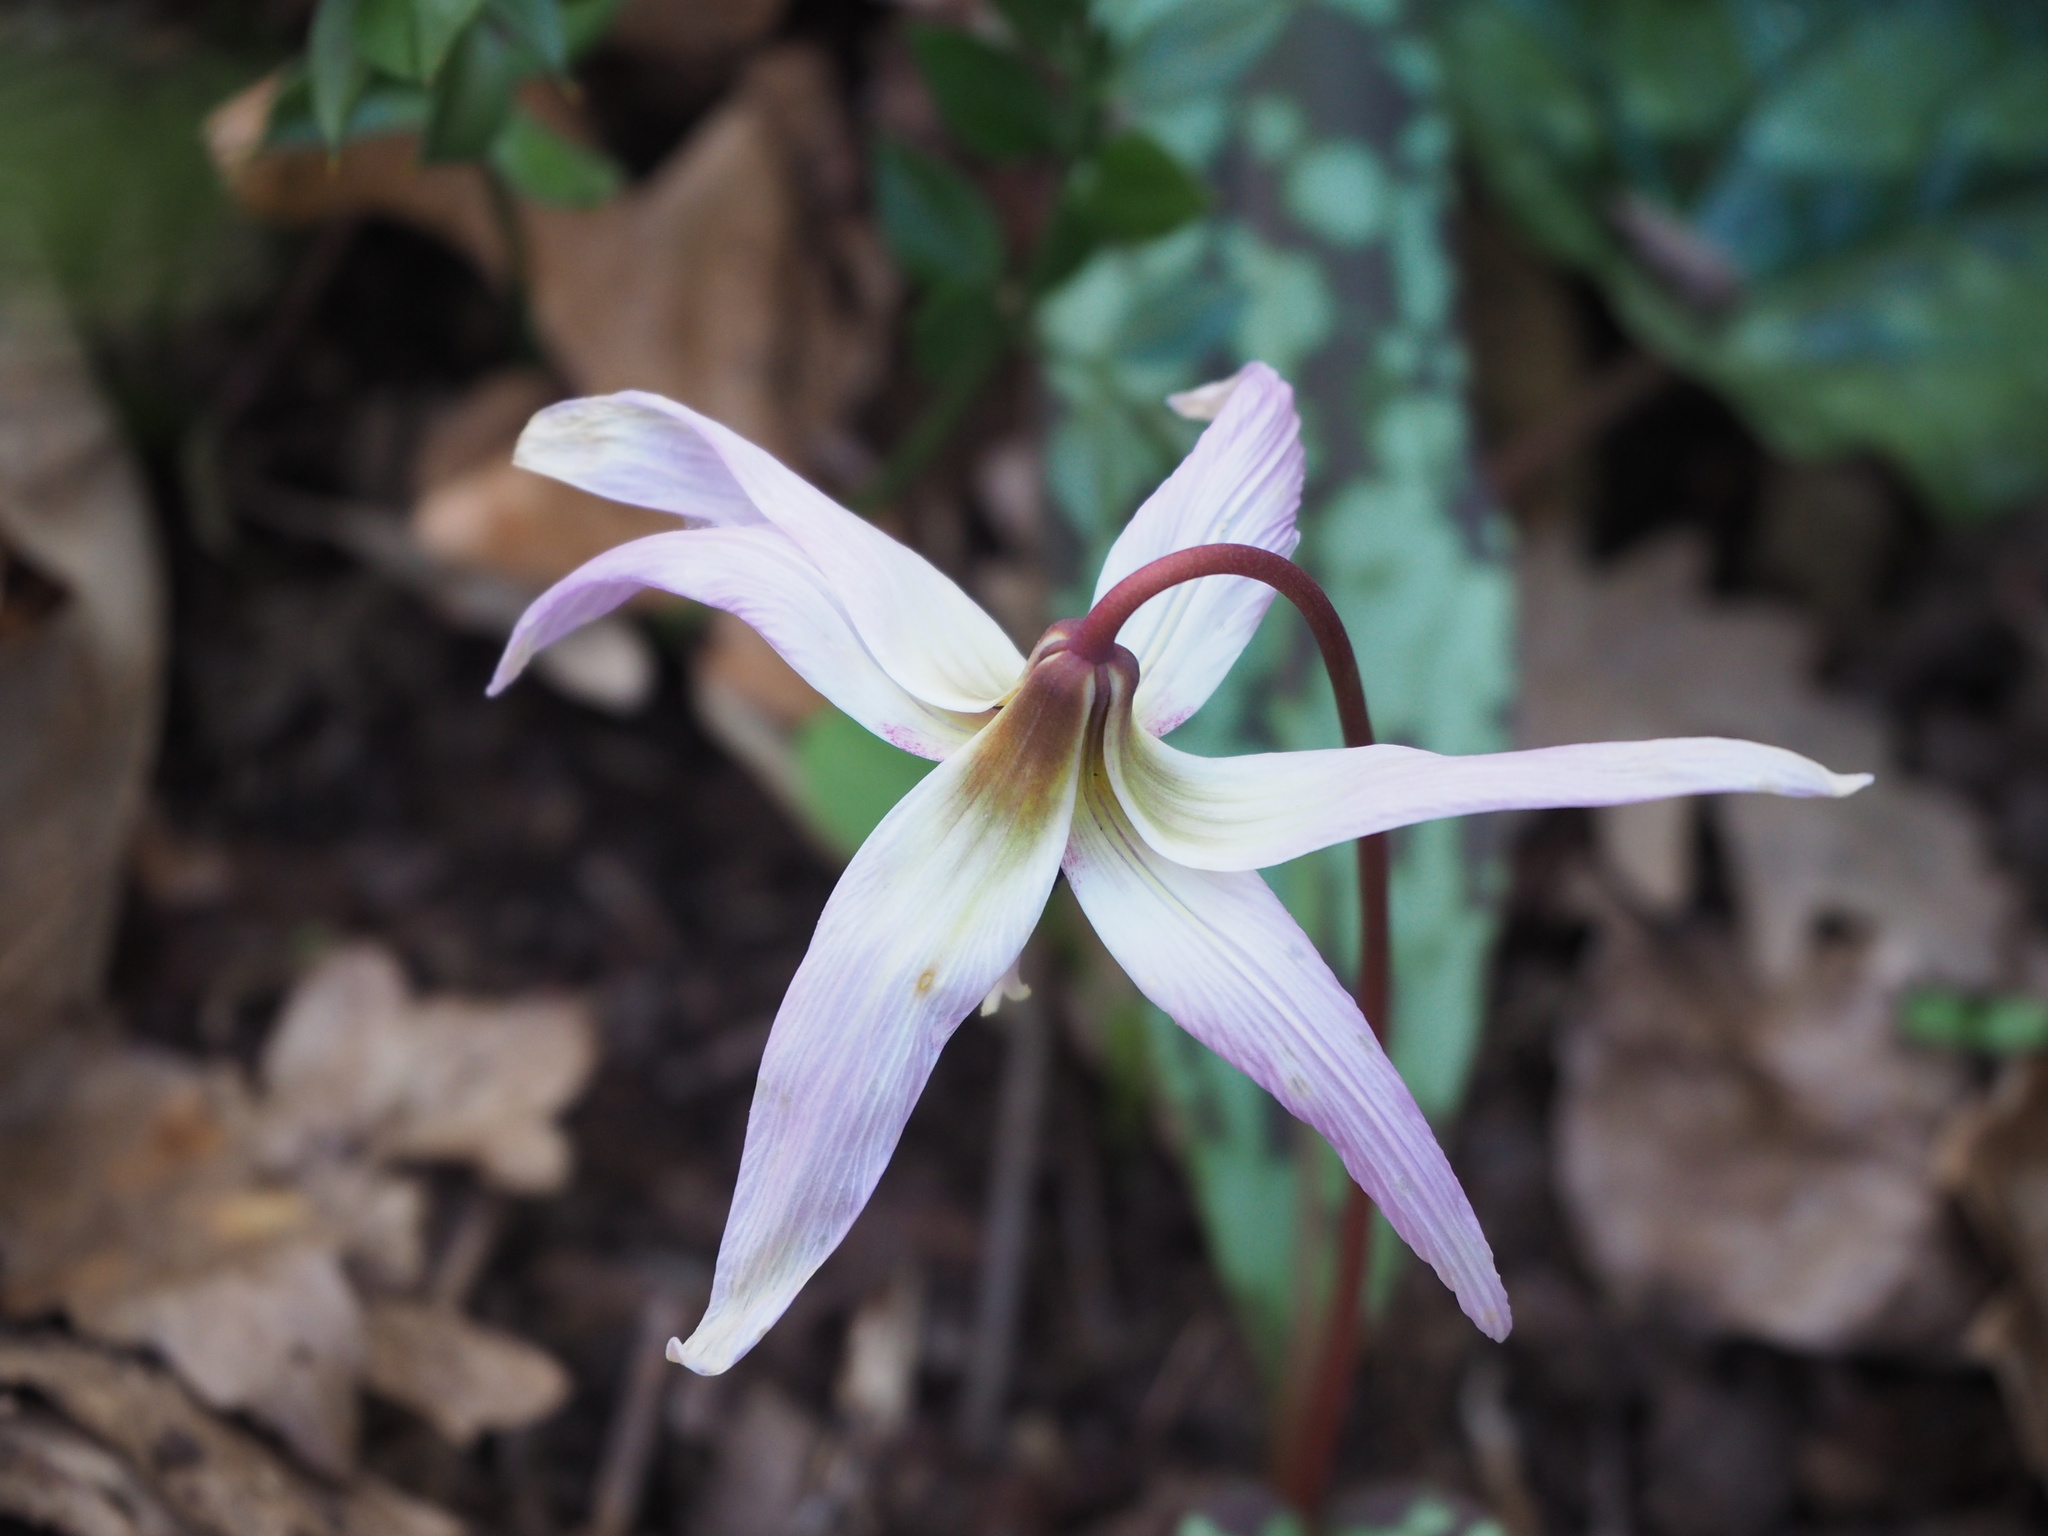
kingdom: Plantae
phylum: Tracheophyta
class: Liliopsida
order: Liliales
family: Liliaceae
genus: Erythronium
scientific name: Erythronium dens-canis
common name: Dog's-tooth-violet
